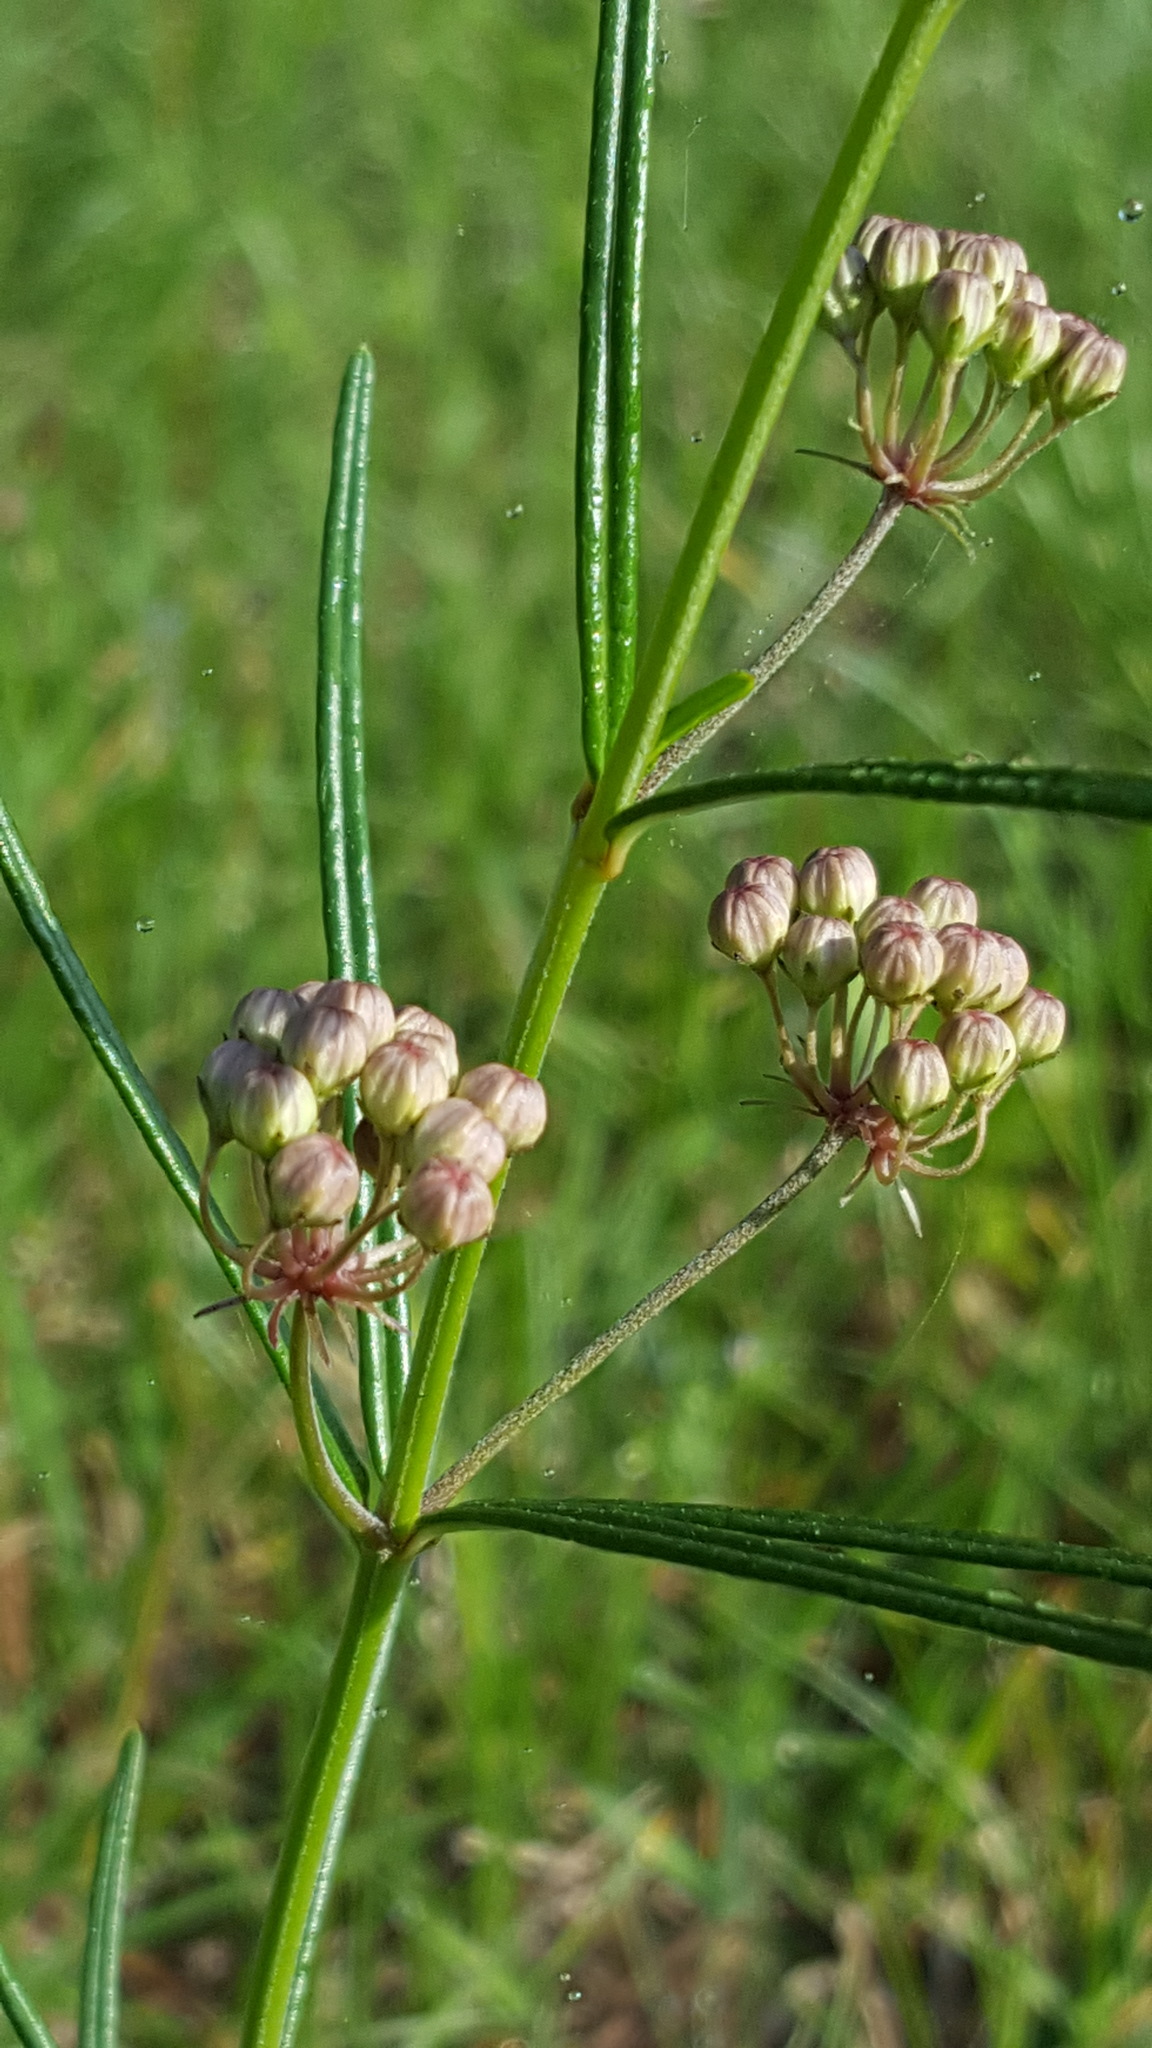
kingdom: Plantae
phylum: Tracheophyta
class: Magnoliopsida
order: Gentianales
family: Apocynaceae
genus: Asclepias
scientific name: Asclepias verticillata
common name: Eastern whorled milkweed
